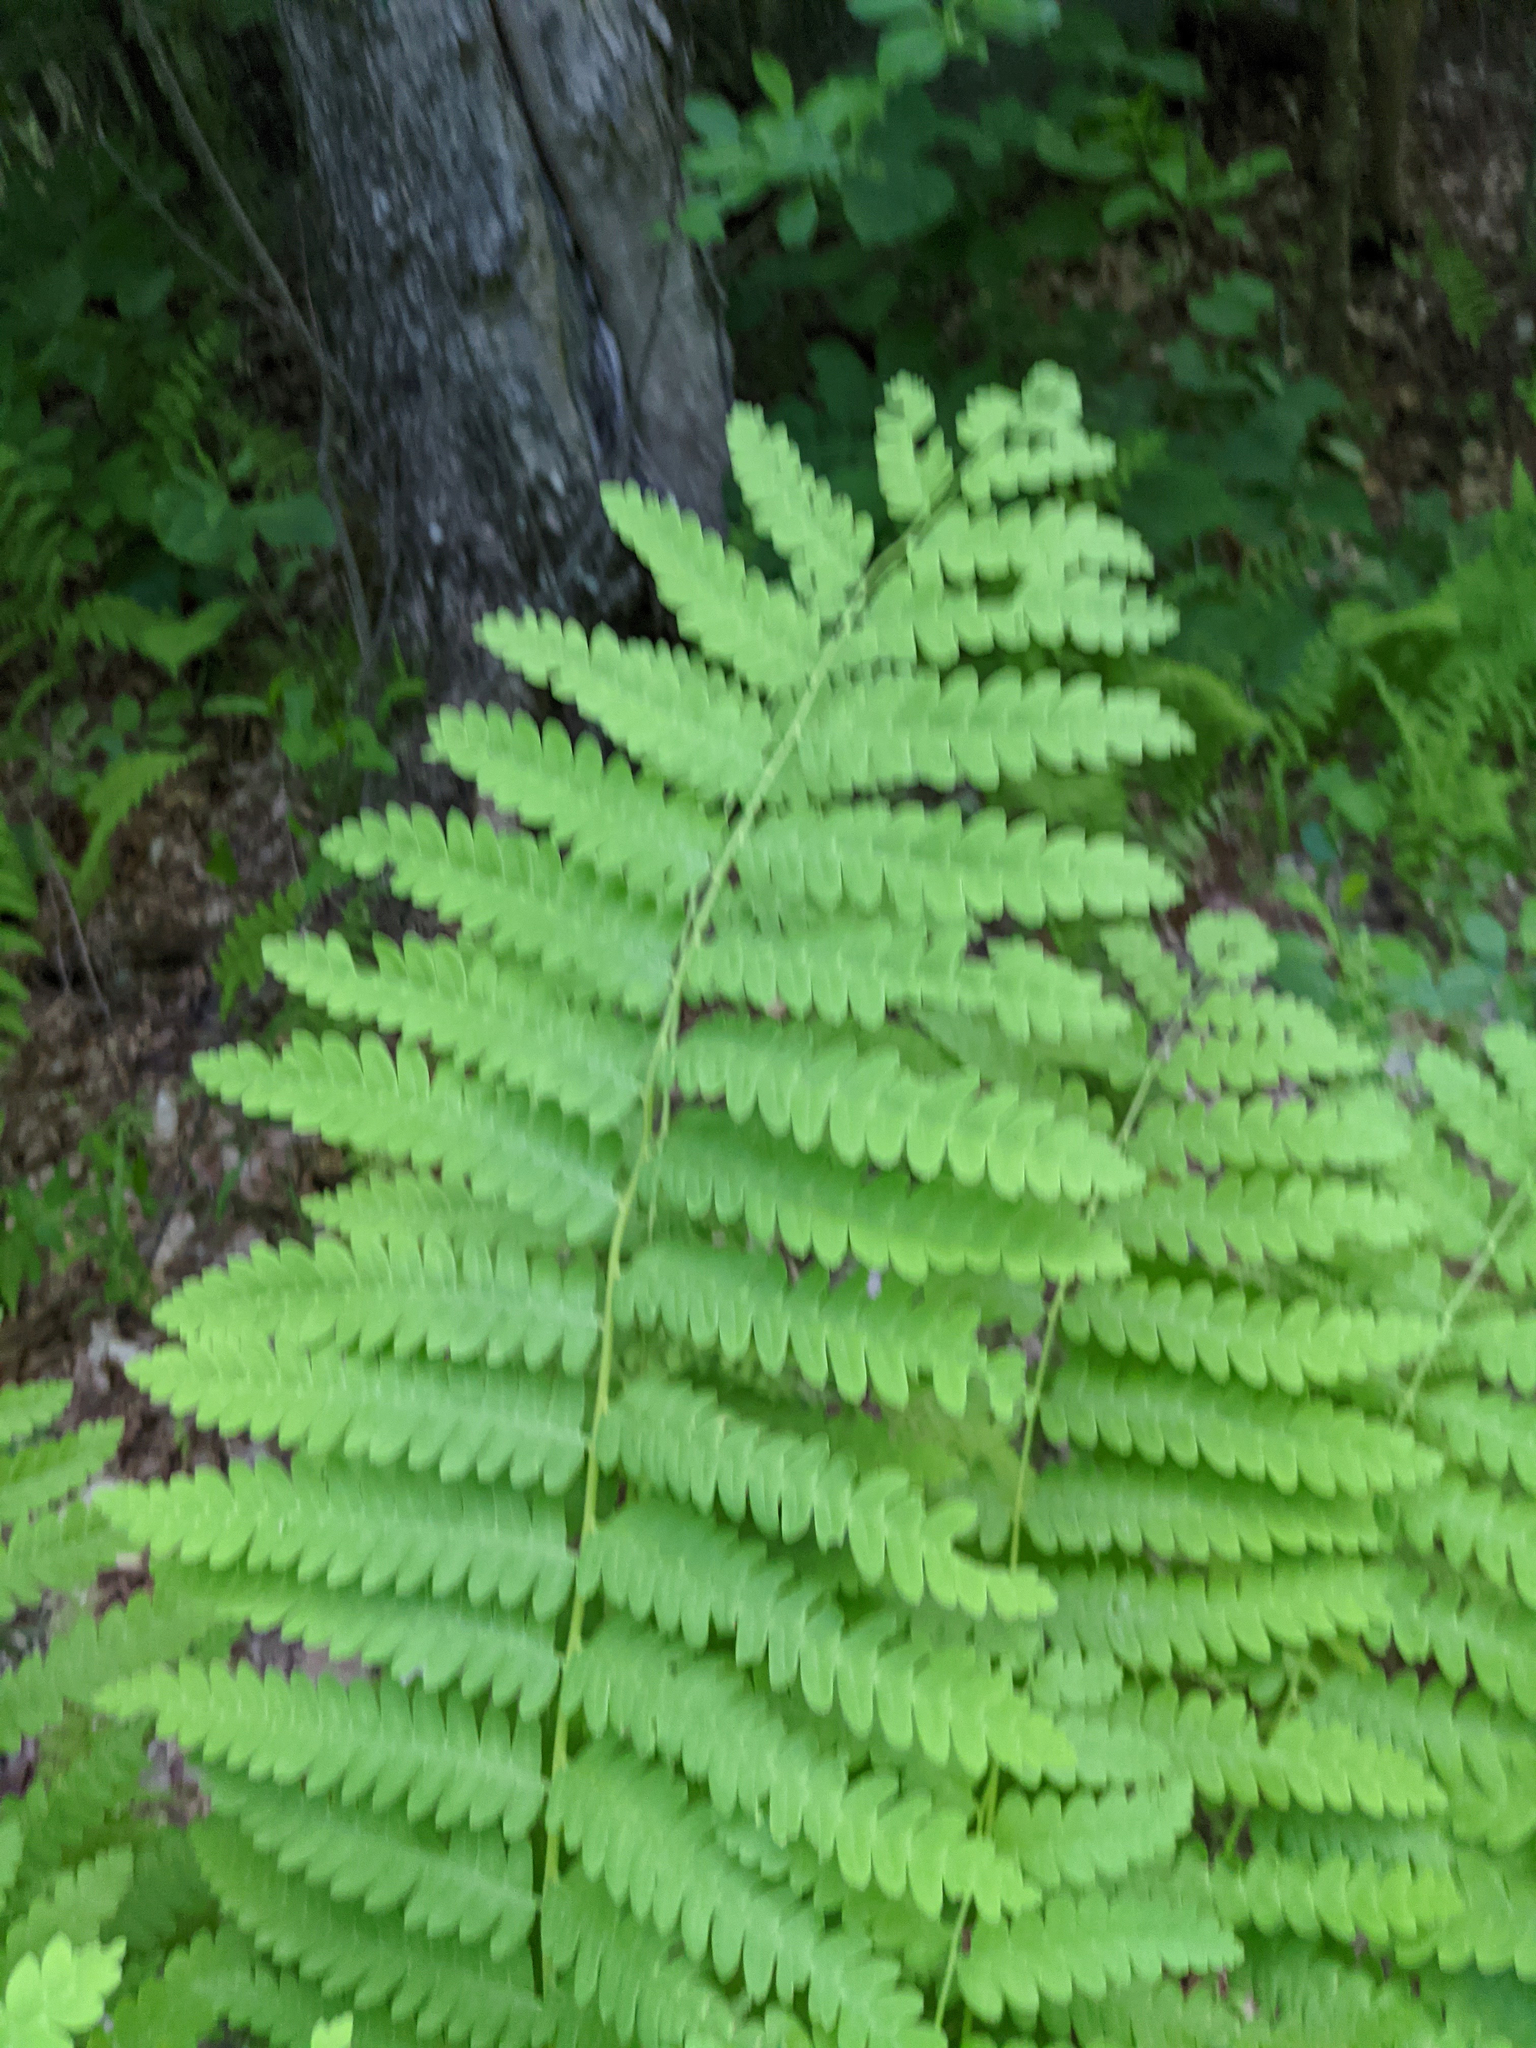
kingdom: Plantae
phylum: Tracheophyta
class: Polypodiopsida
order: Osmundales
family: Osmundaceae
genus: Claytosmunda
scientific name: Claytosmunda claytoniana
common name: Clayton's fern
